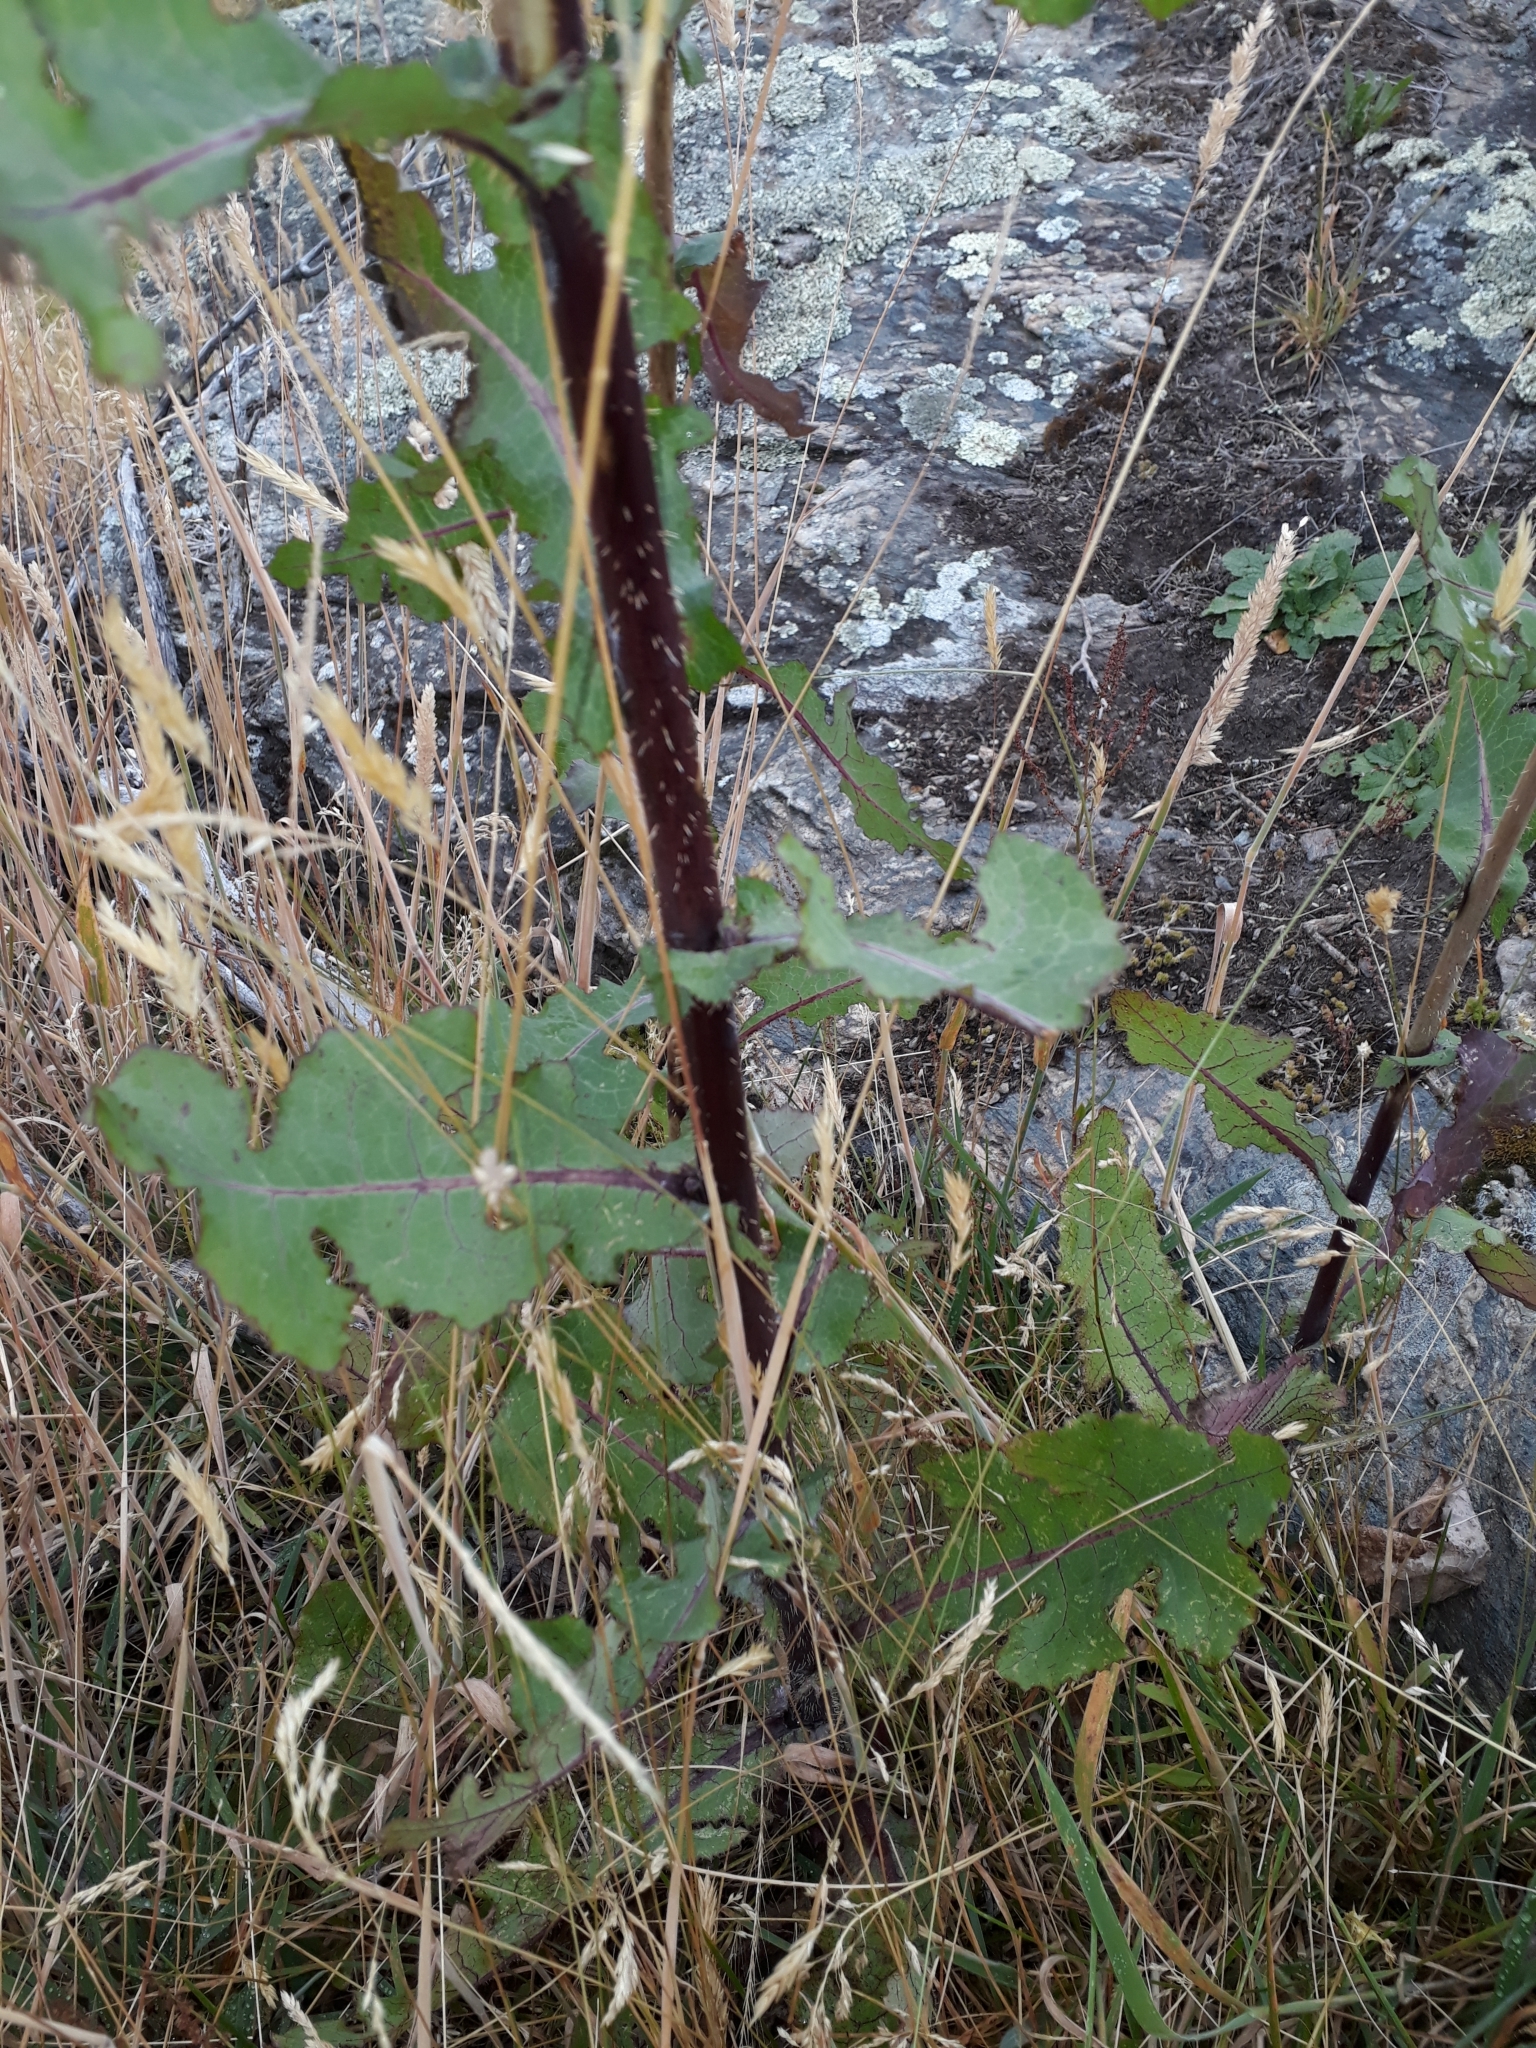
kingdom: Plantae
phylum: Tracheophyta
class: Magnoliopsida
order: Asterales
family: Asteraceae
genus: Lactuca
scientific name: Lactuca virosa
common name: Great lettuce
